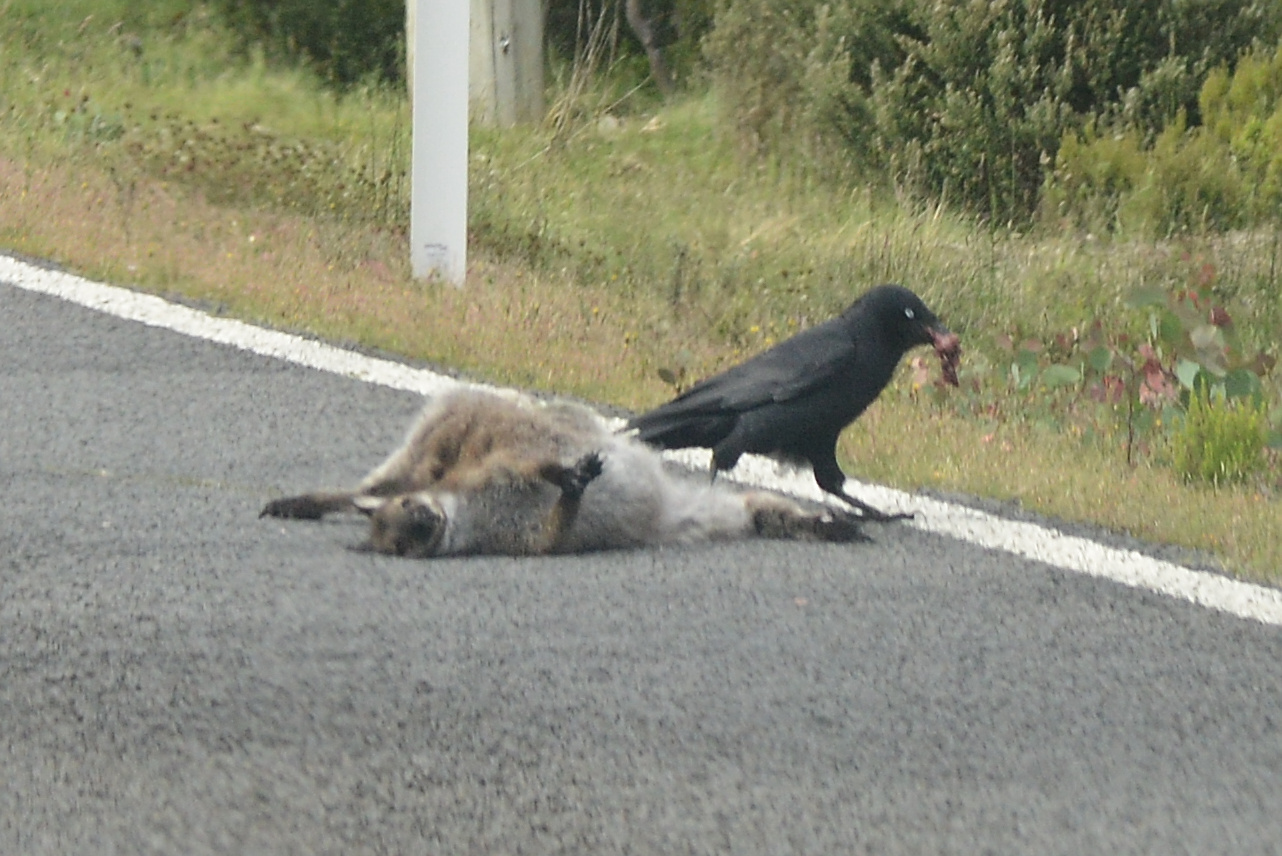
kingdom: Animalia
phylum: Chordata
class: Mammalia
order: Diprotodontia
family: Macropodidae
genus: Notamacropus
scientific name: Notamacropus rufogriseus
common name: Red-necked wallaby
